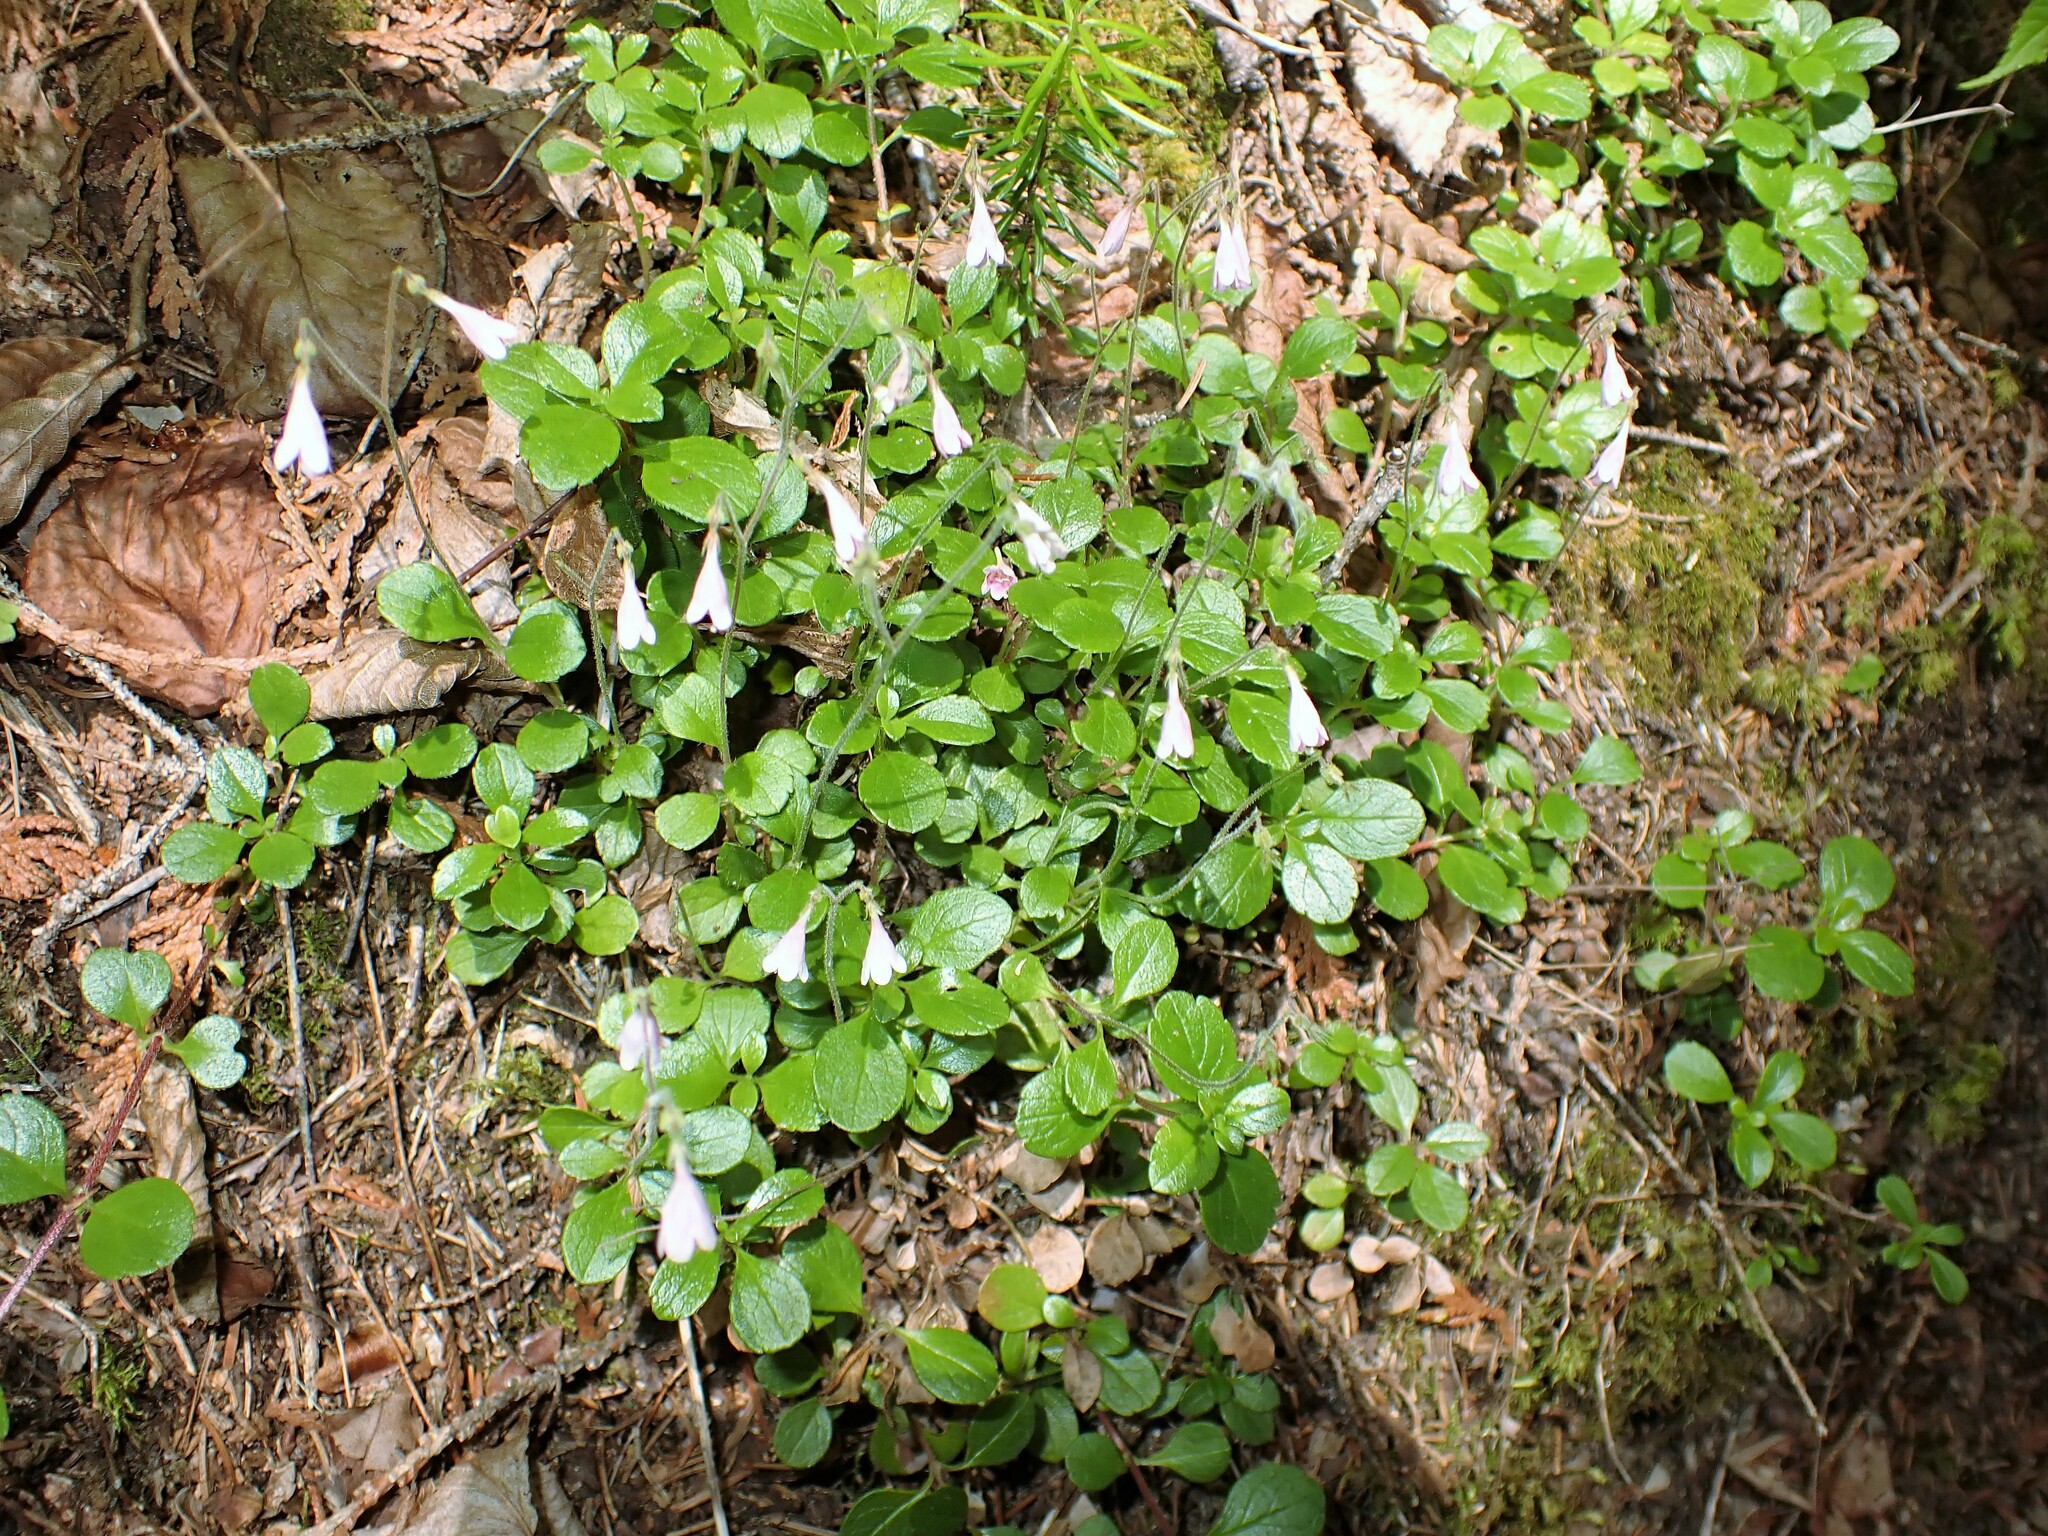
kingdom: Plantae
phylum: Tracheophyta
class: Magnoliopsida
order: Dipsacales
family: Caprifoliaceae
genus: Linnaea
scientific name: Linnaea borealis
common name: Twinflower
